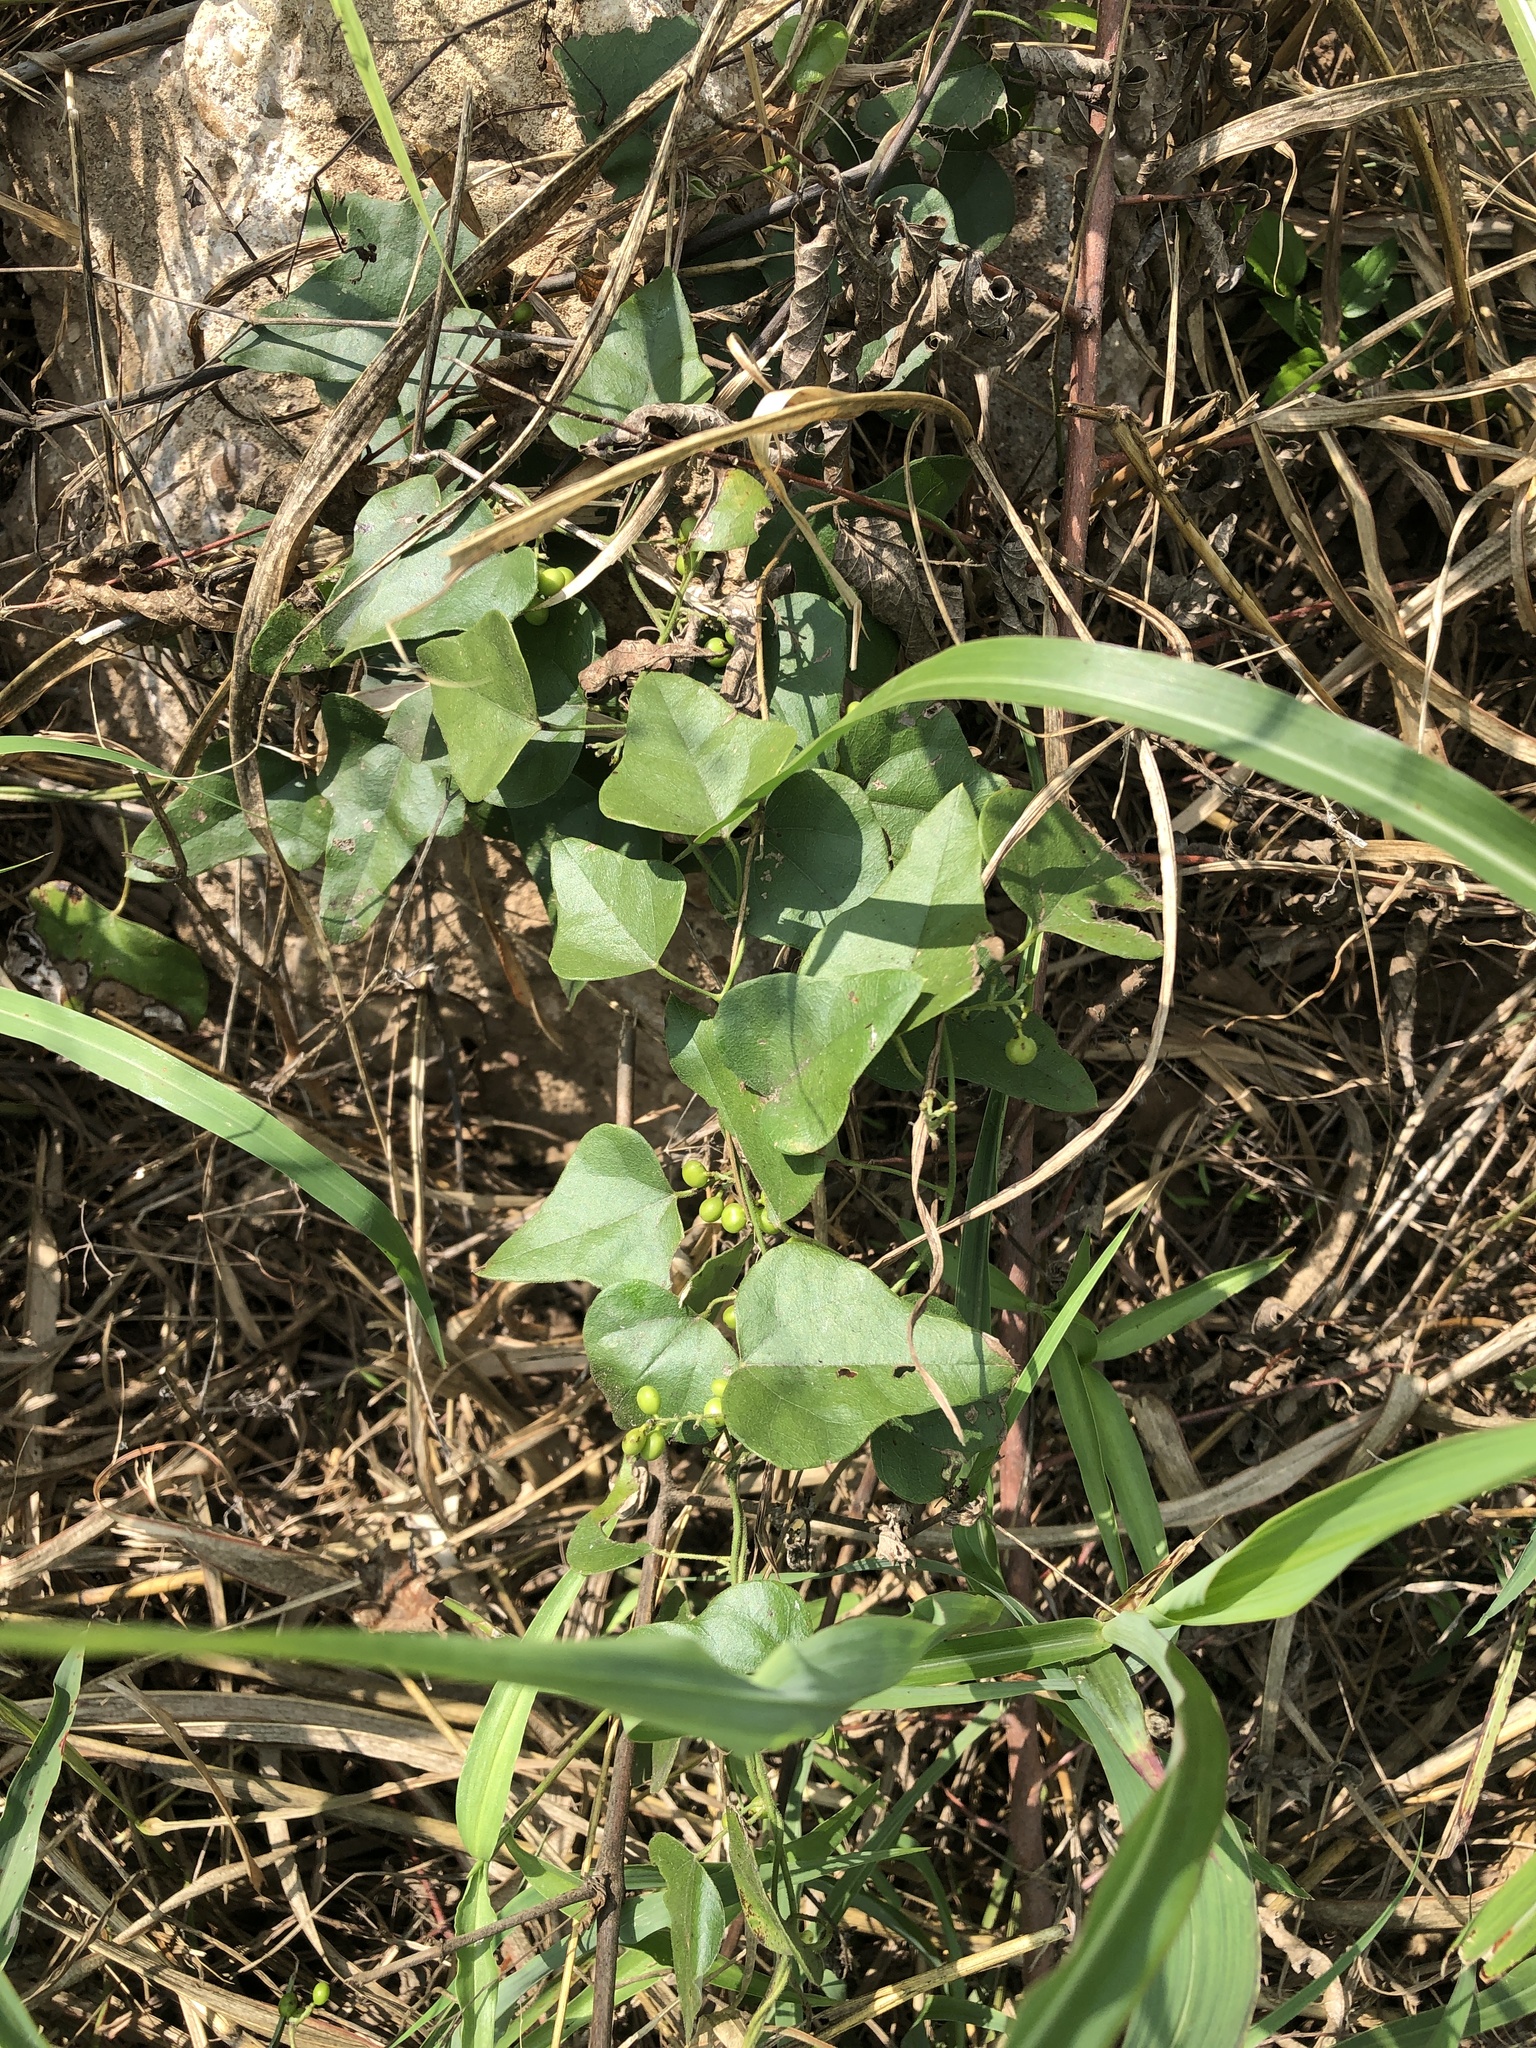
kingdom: Plantae
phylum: Tracheophyta
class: Magnoliopsida
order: Ranunculales
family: Menispermaceae
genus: Cocculus
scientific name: Cocculus carolinus
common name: Carolina moonseed
